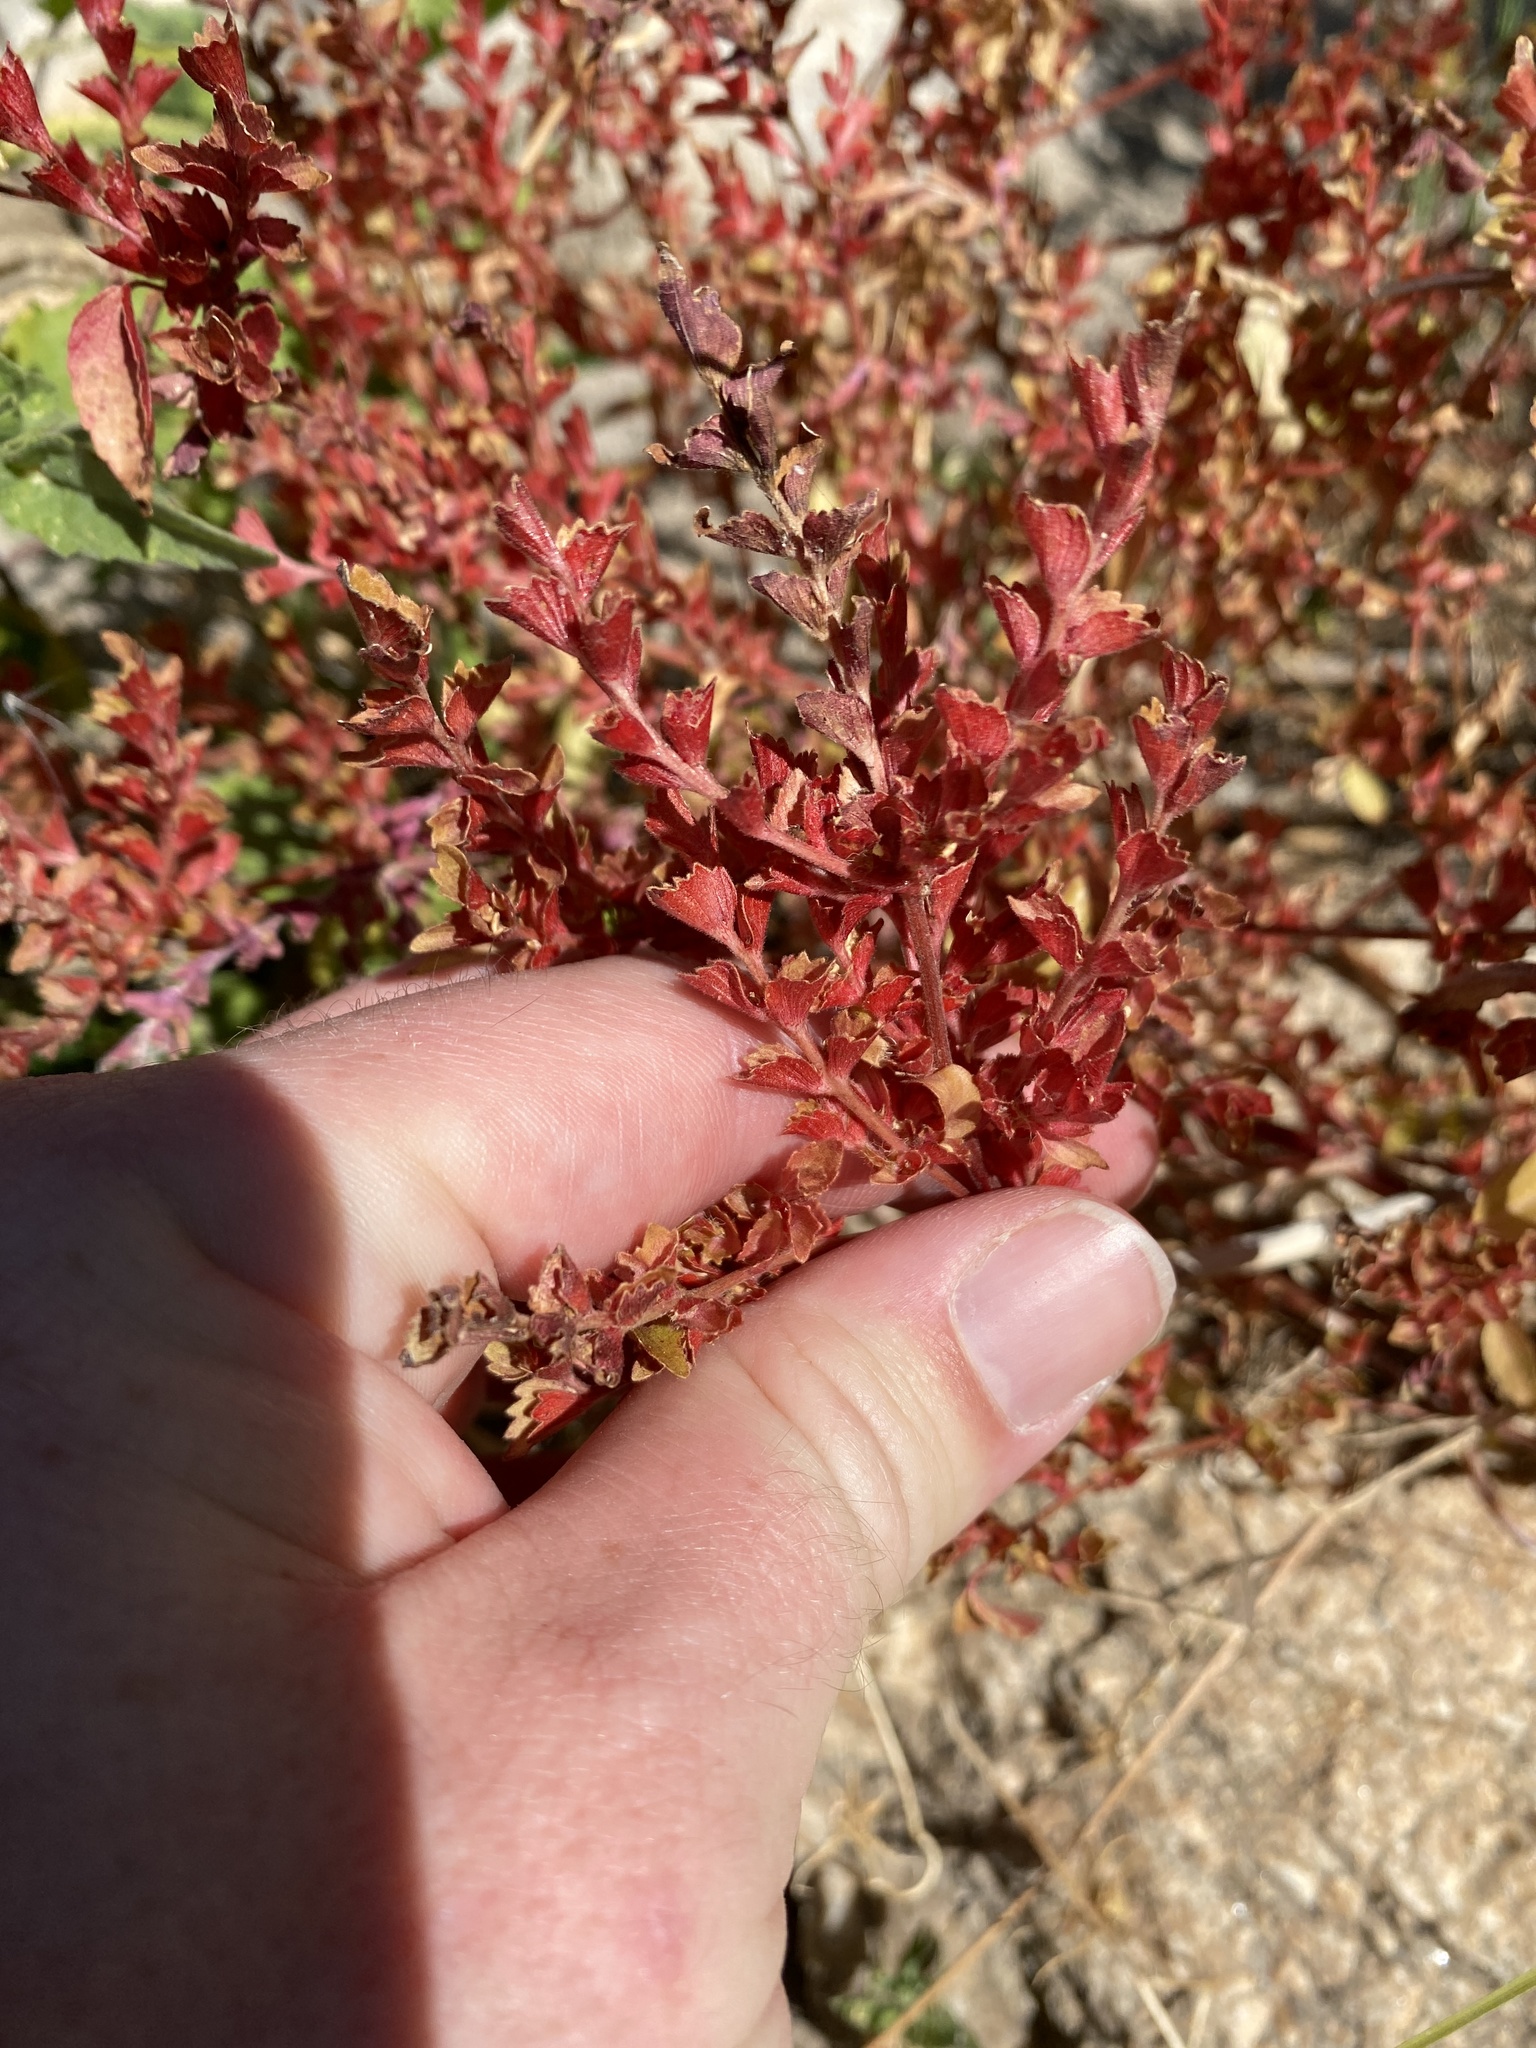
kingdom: Plantae
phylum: Tracheophyta
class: Magnoliopsida
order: Malpighiales
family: Euphorbiaceae
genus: Acalypha
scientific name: Acalypha neomexicana
